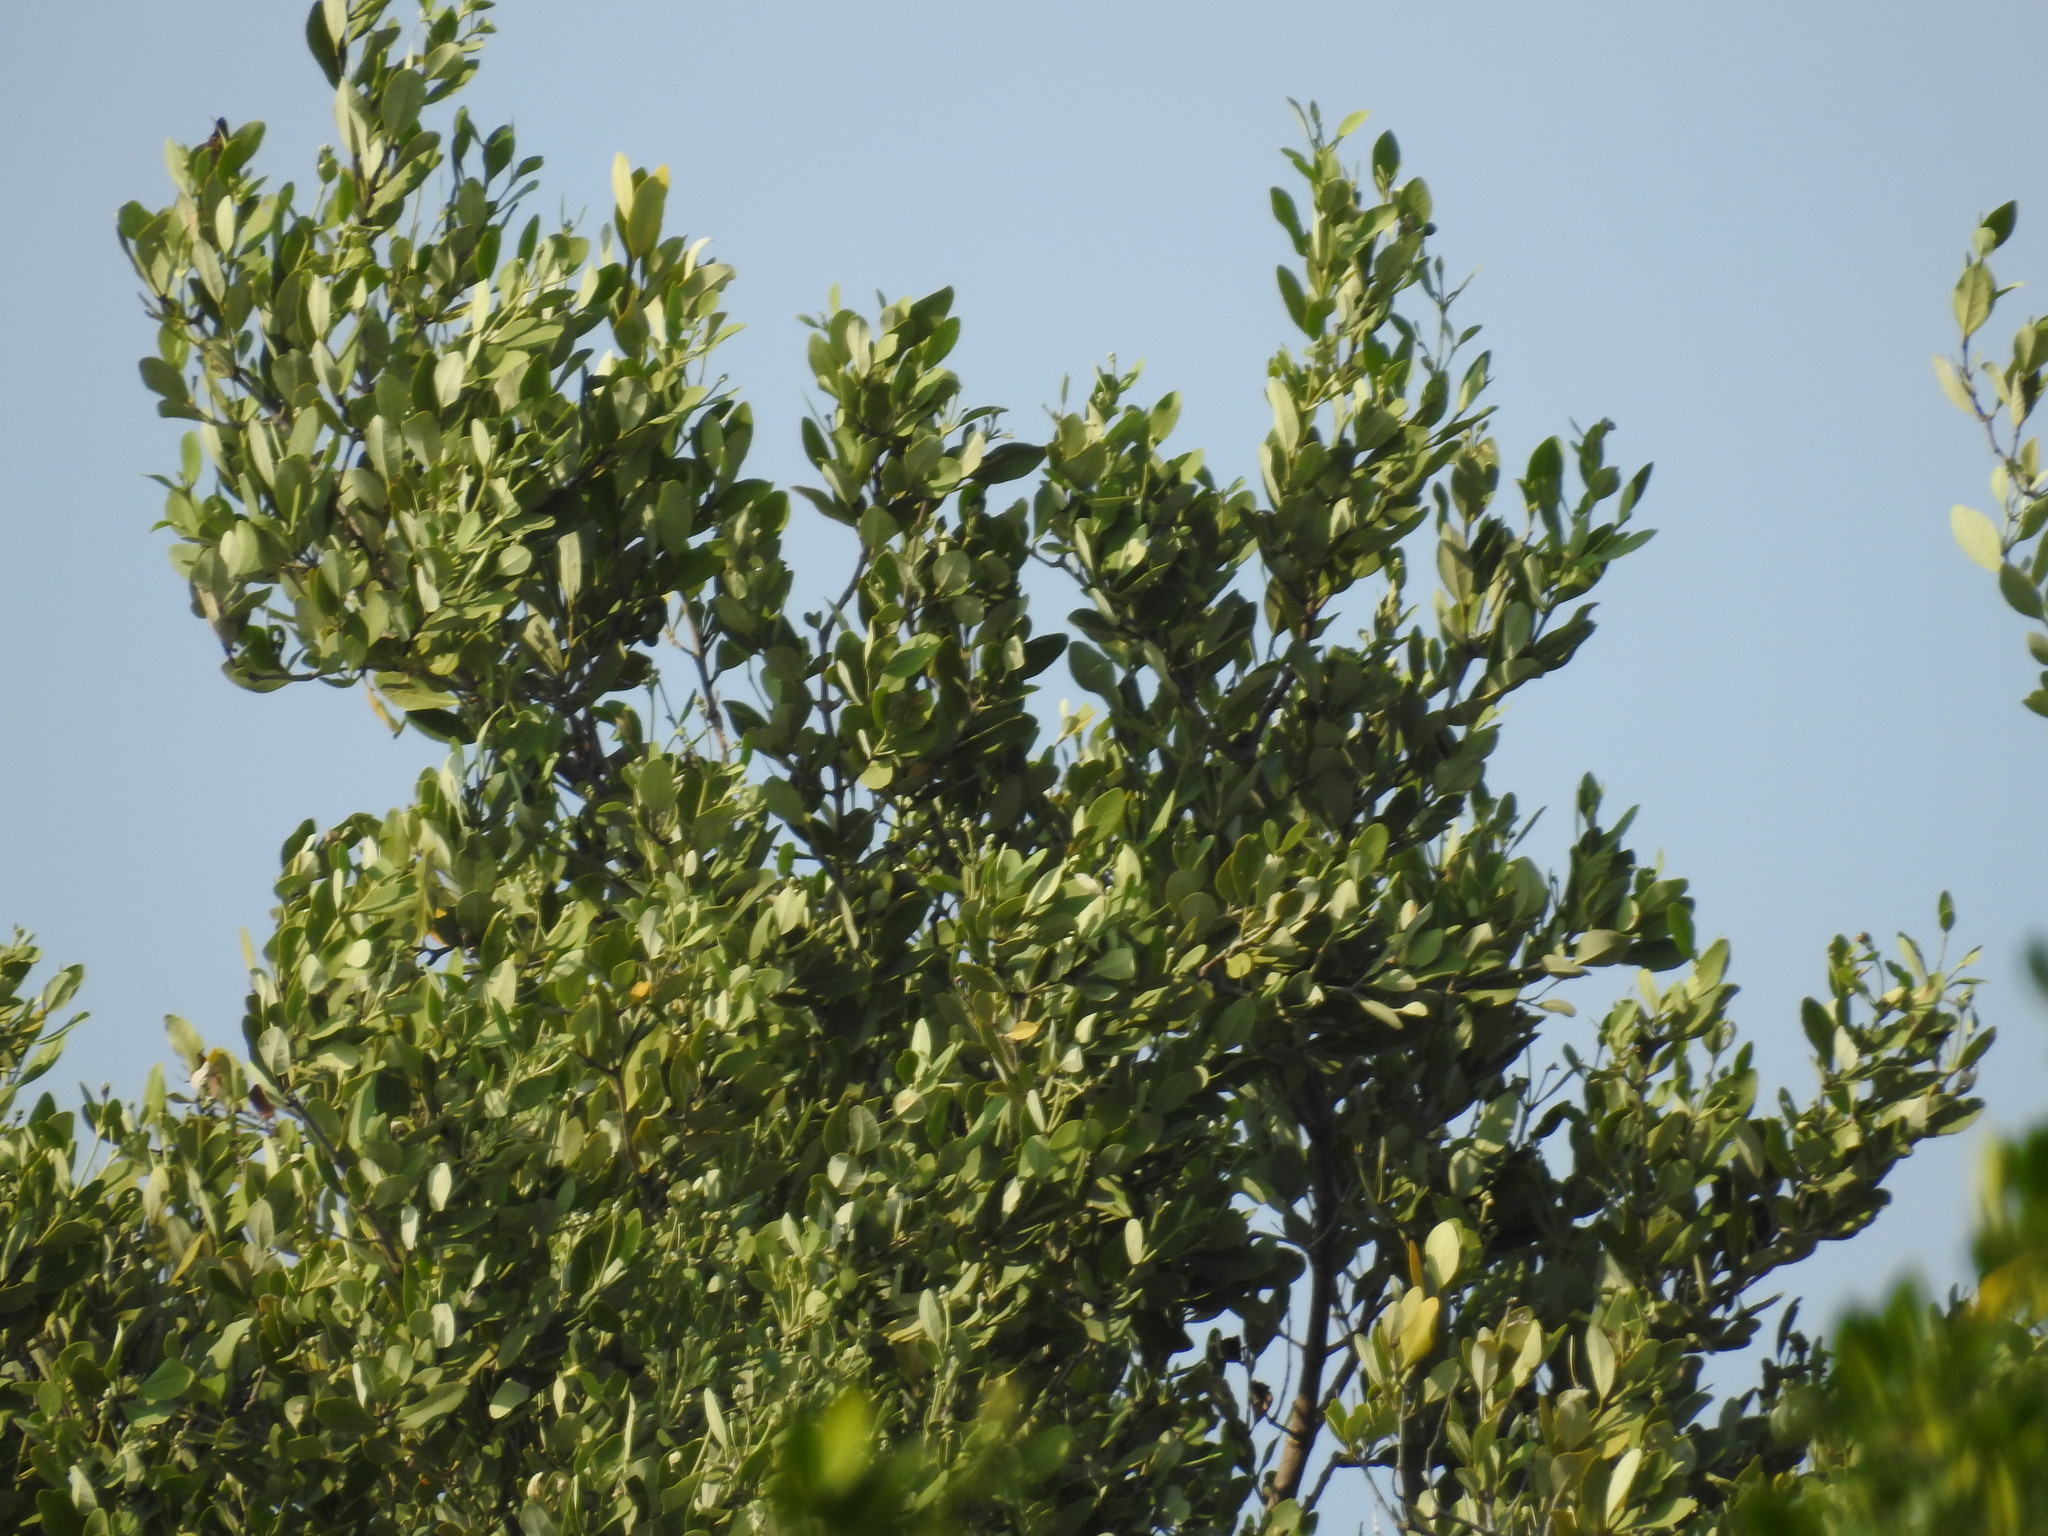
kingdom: Plantae
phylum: Tracheophyta
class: Magnoliopsida
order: Lamiales
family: Acanthaceae
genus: Avicennia
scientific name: Avicennia germinans
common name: Black mangrove
